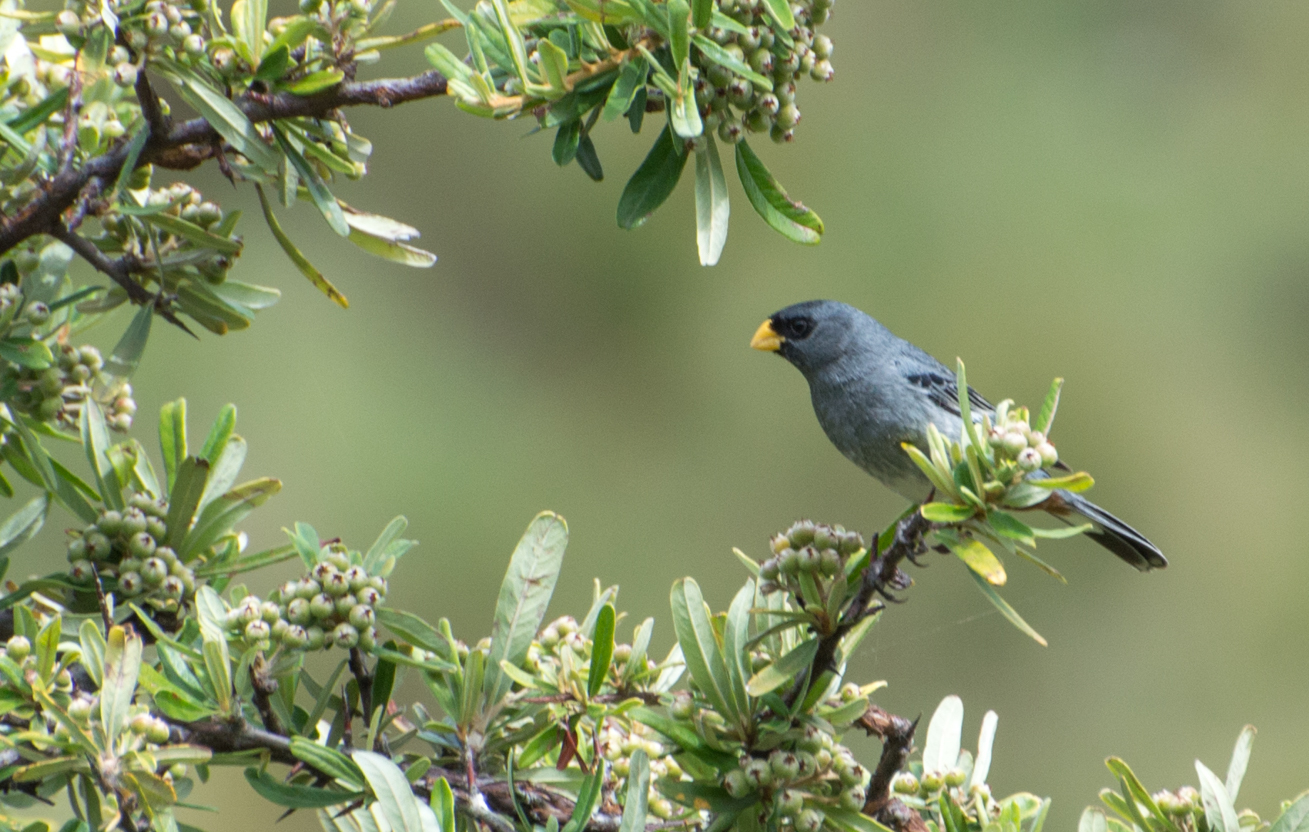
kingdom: Animalia
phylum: Chordata
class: Aves
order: Passeriformes
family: Thraupidae
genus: Catamenia
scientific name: Catamenia analis
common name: Band-tailed seedeater
